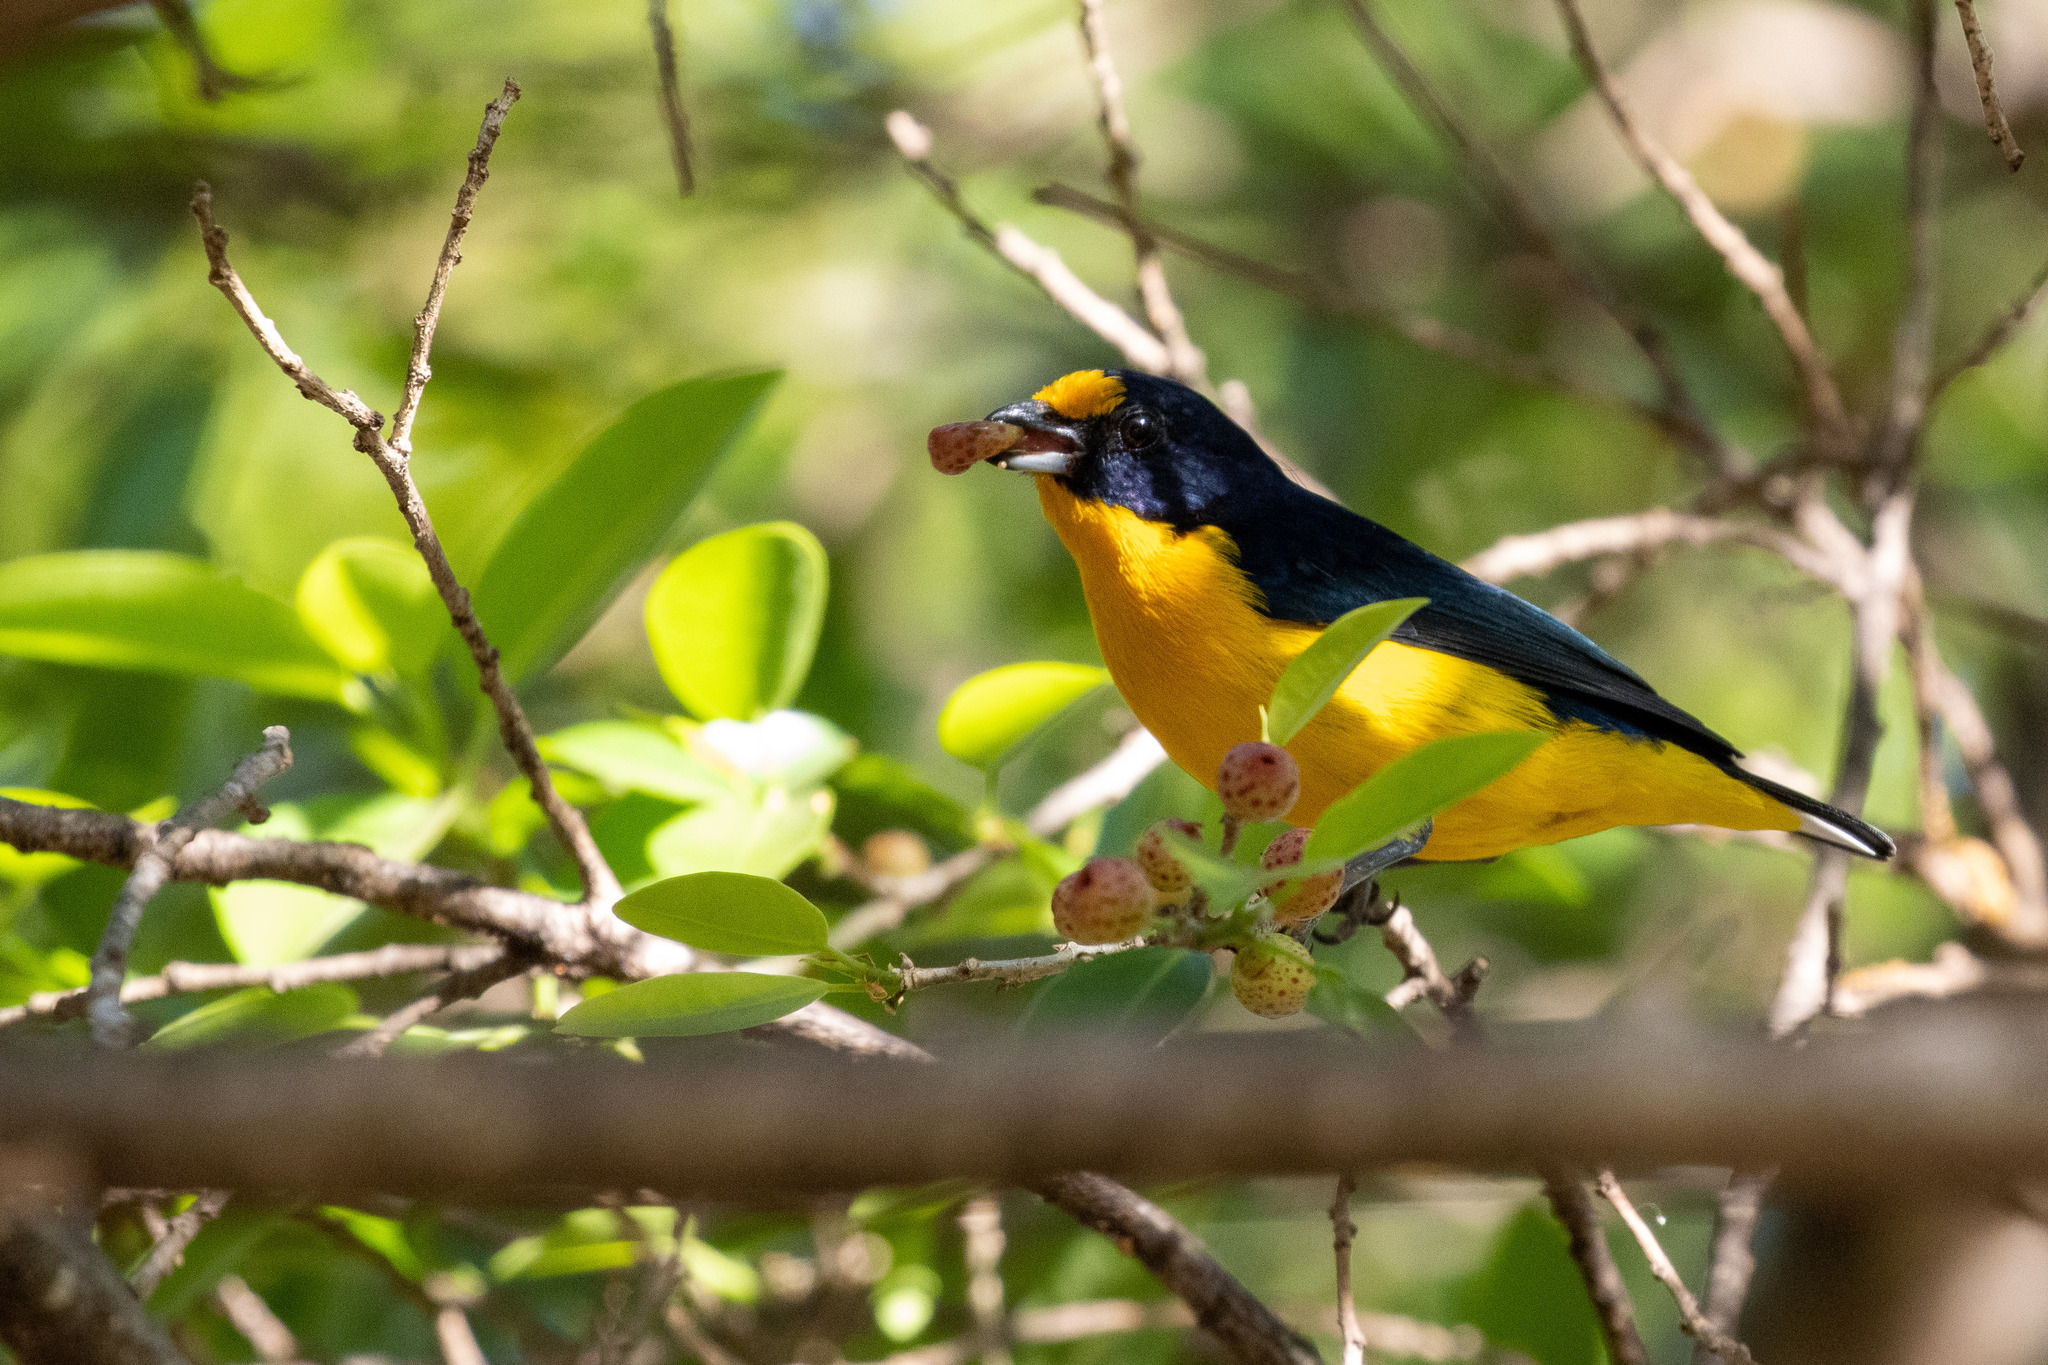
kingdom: Animalia
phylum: Chordata
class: Aves
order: Passeriformes
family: Fringillidae
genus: Euphonia
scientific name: Euphonia violacea
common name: Violaceous euphonia
